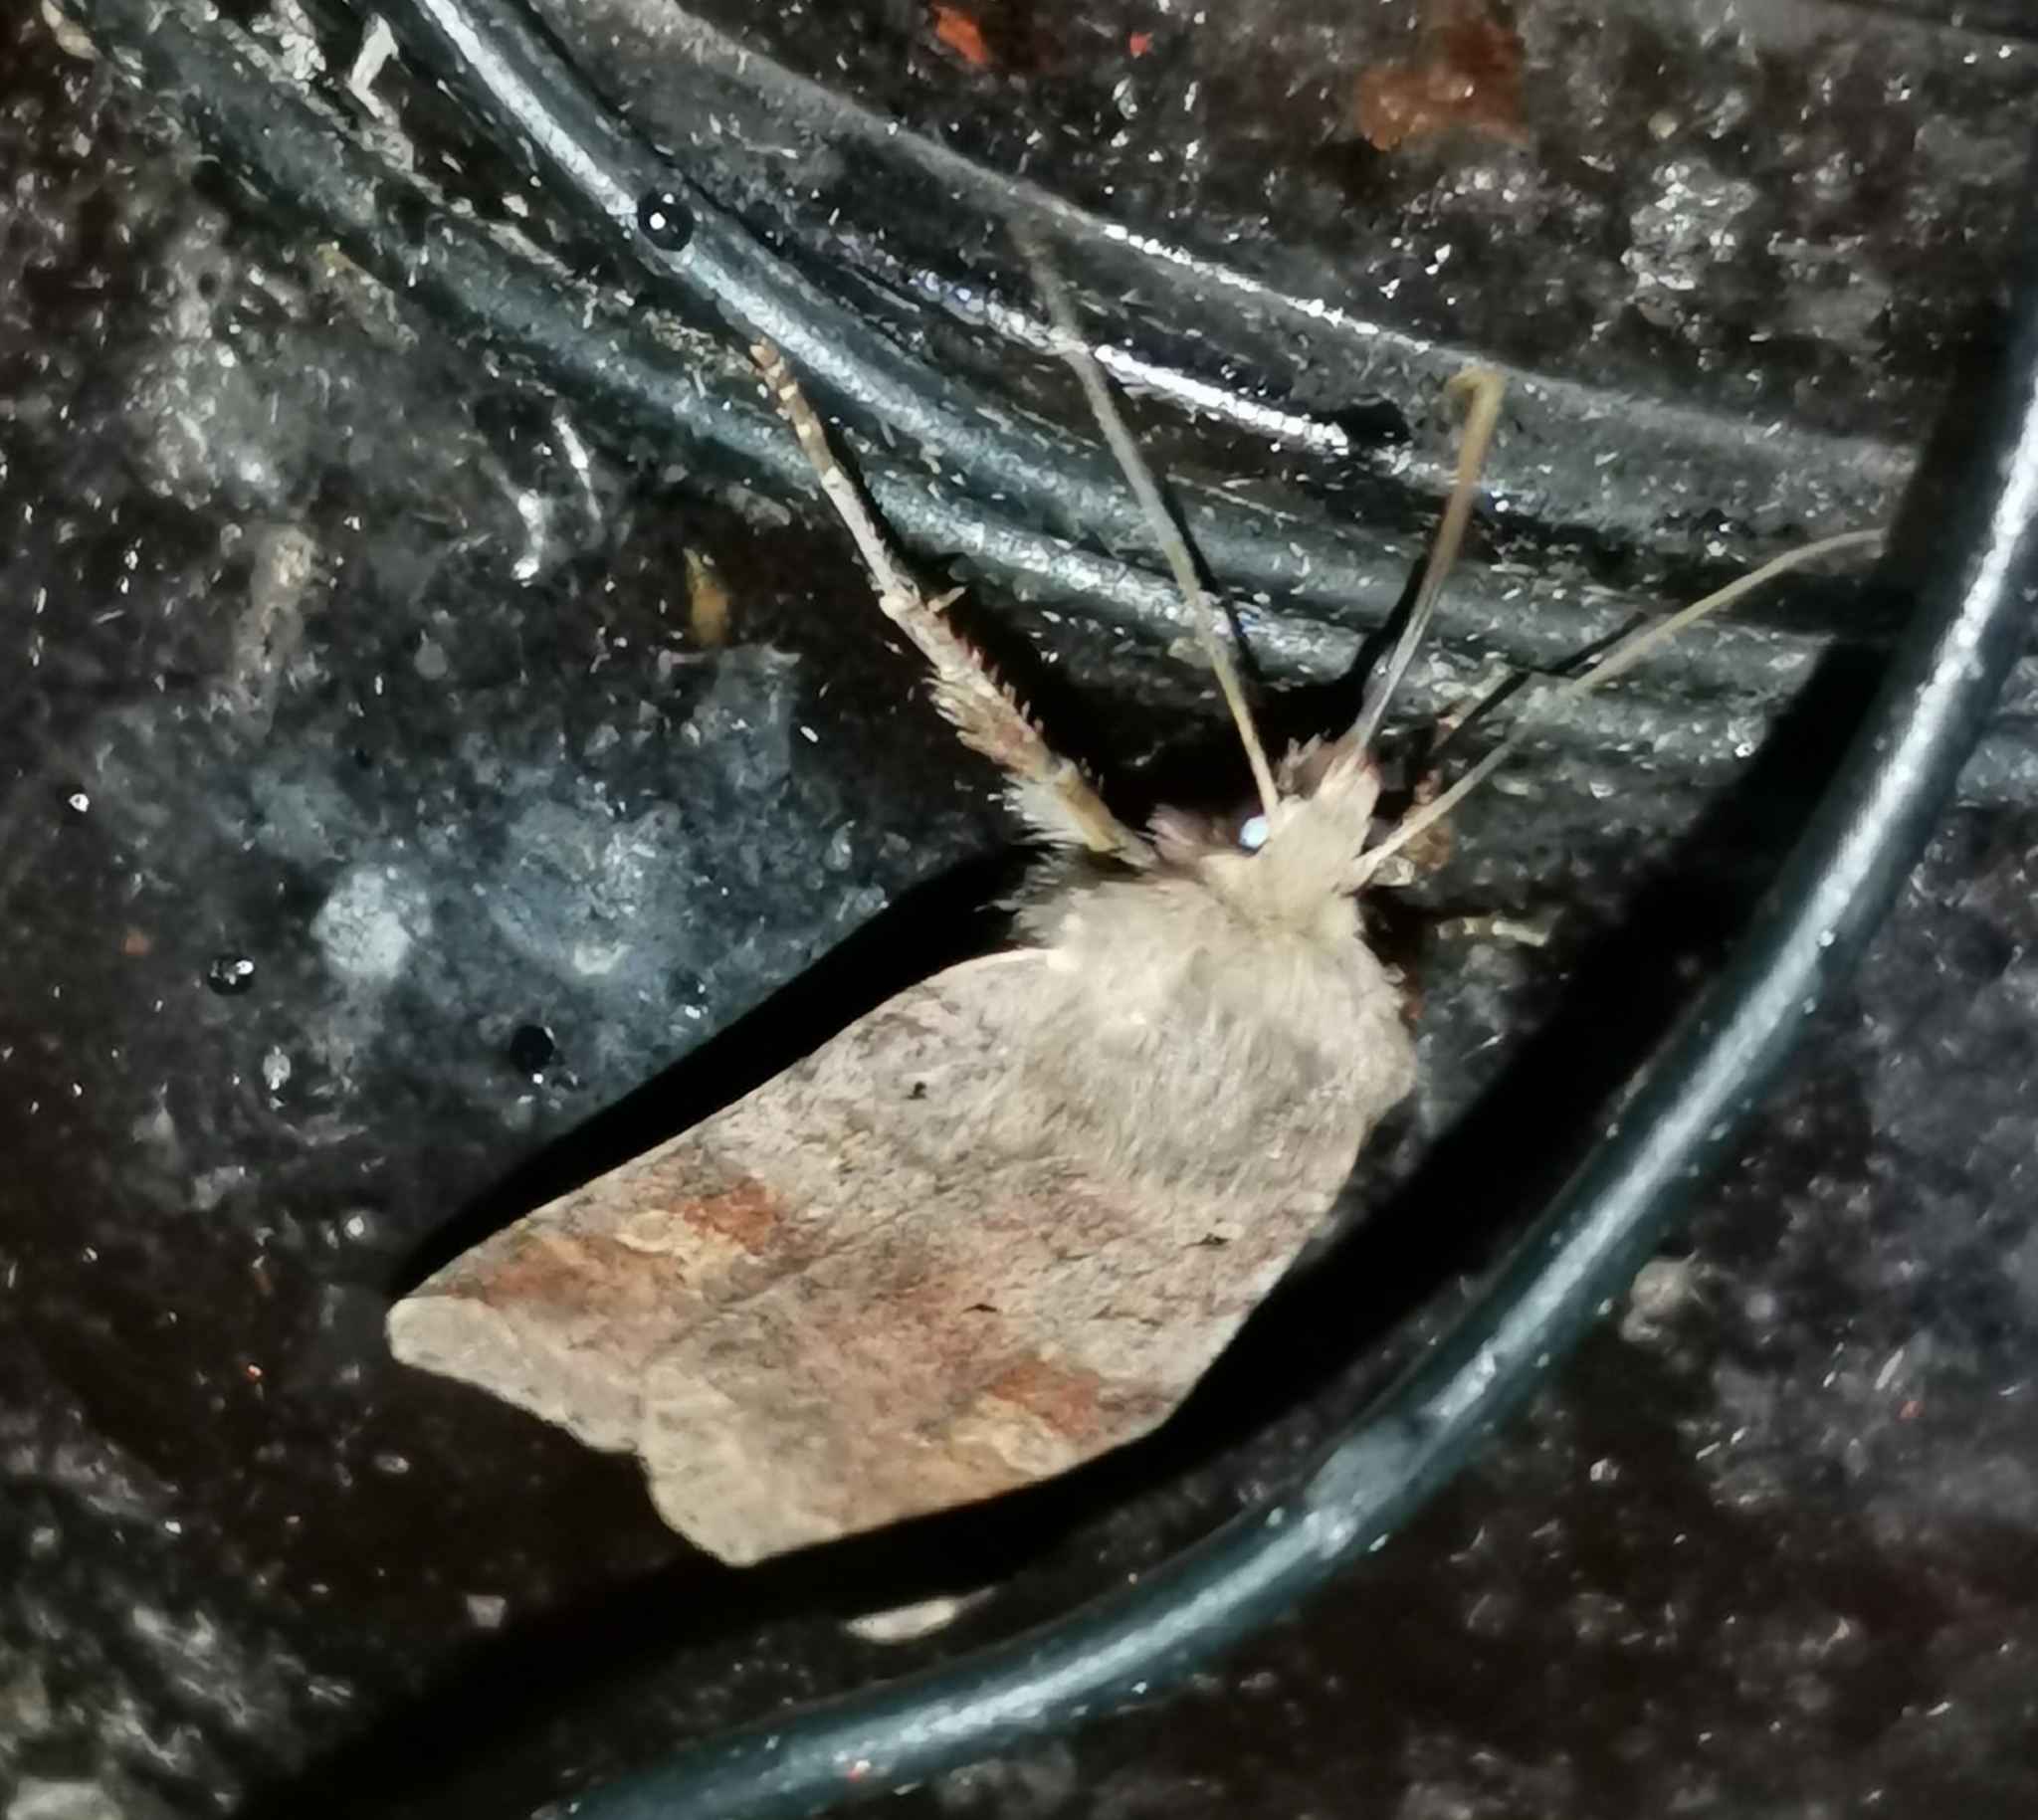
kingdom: Animalia
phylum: Arthropoda
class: Insecta
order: Lepidoptera
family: Noctuidae
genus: Diarsia
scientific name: Diarsia mendica
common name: Ingrailed clay
